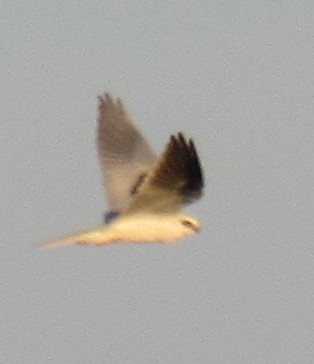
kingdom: Animalia
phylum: Chordata
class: Aves
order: Accipitriformes
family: Accipitridae
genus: Elanus
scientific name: Elanus leucurus
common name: White-tailed kite
